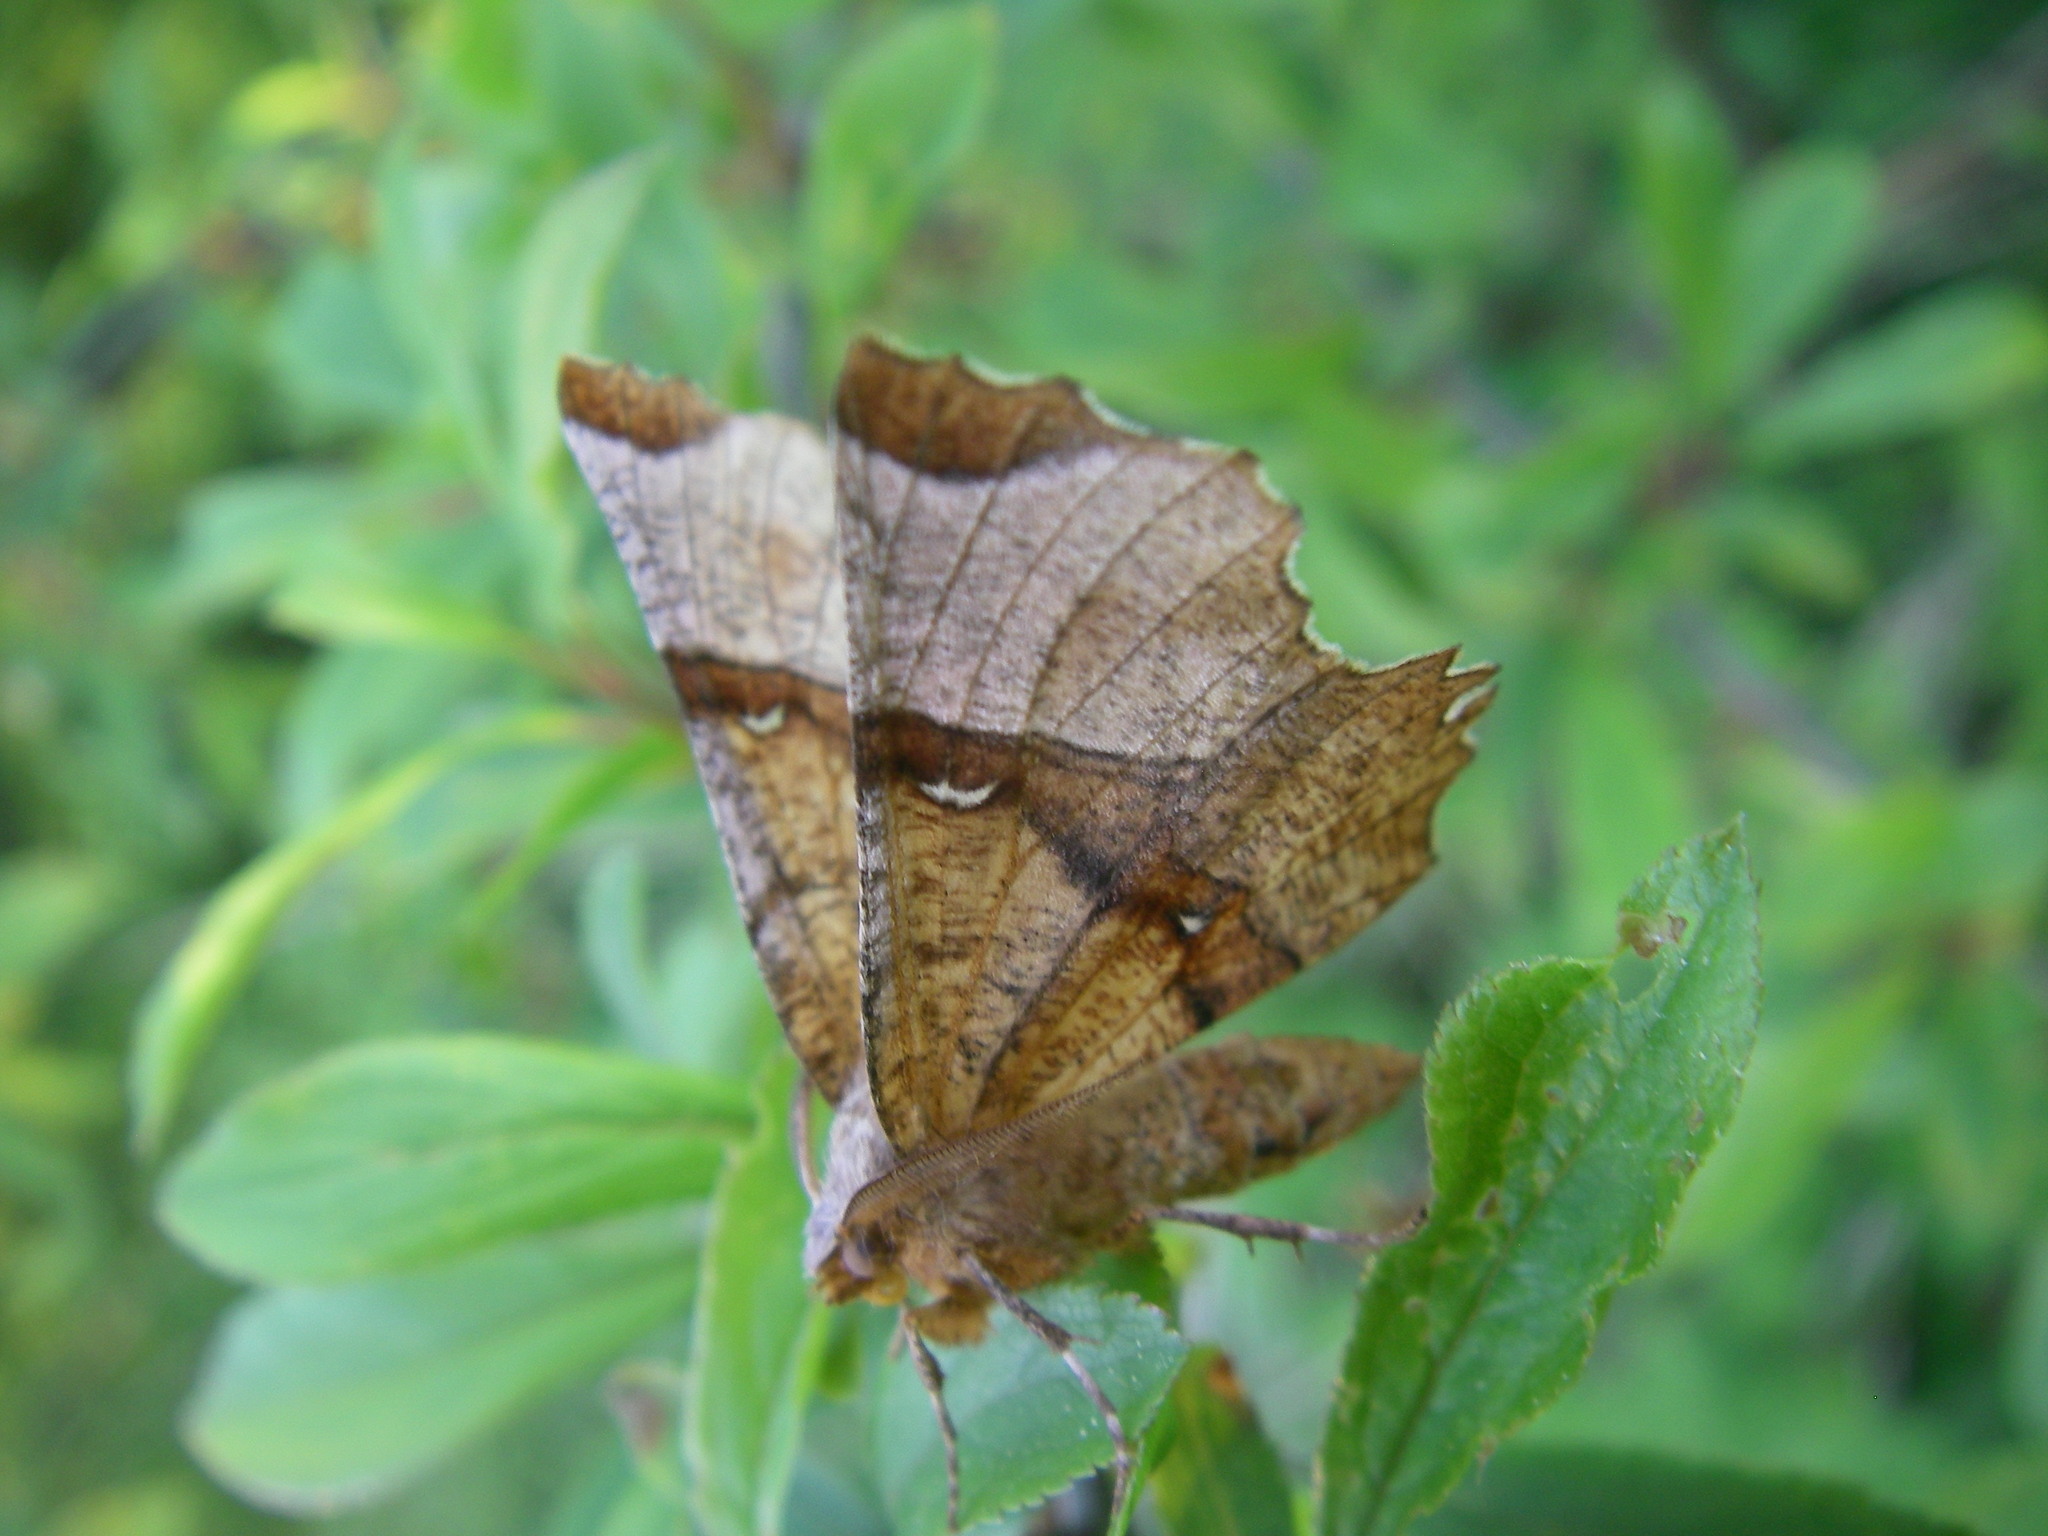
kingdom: Animalia
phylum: Arthropoda
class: Insecta
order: Lepidoptera
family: Geometridae
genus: Selenia
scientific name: Selenia lunularia
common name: Lunar thorn
